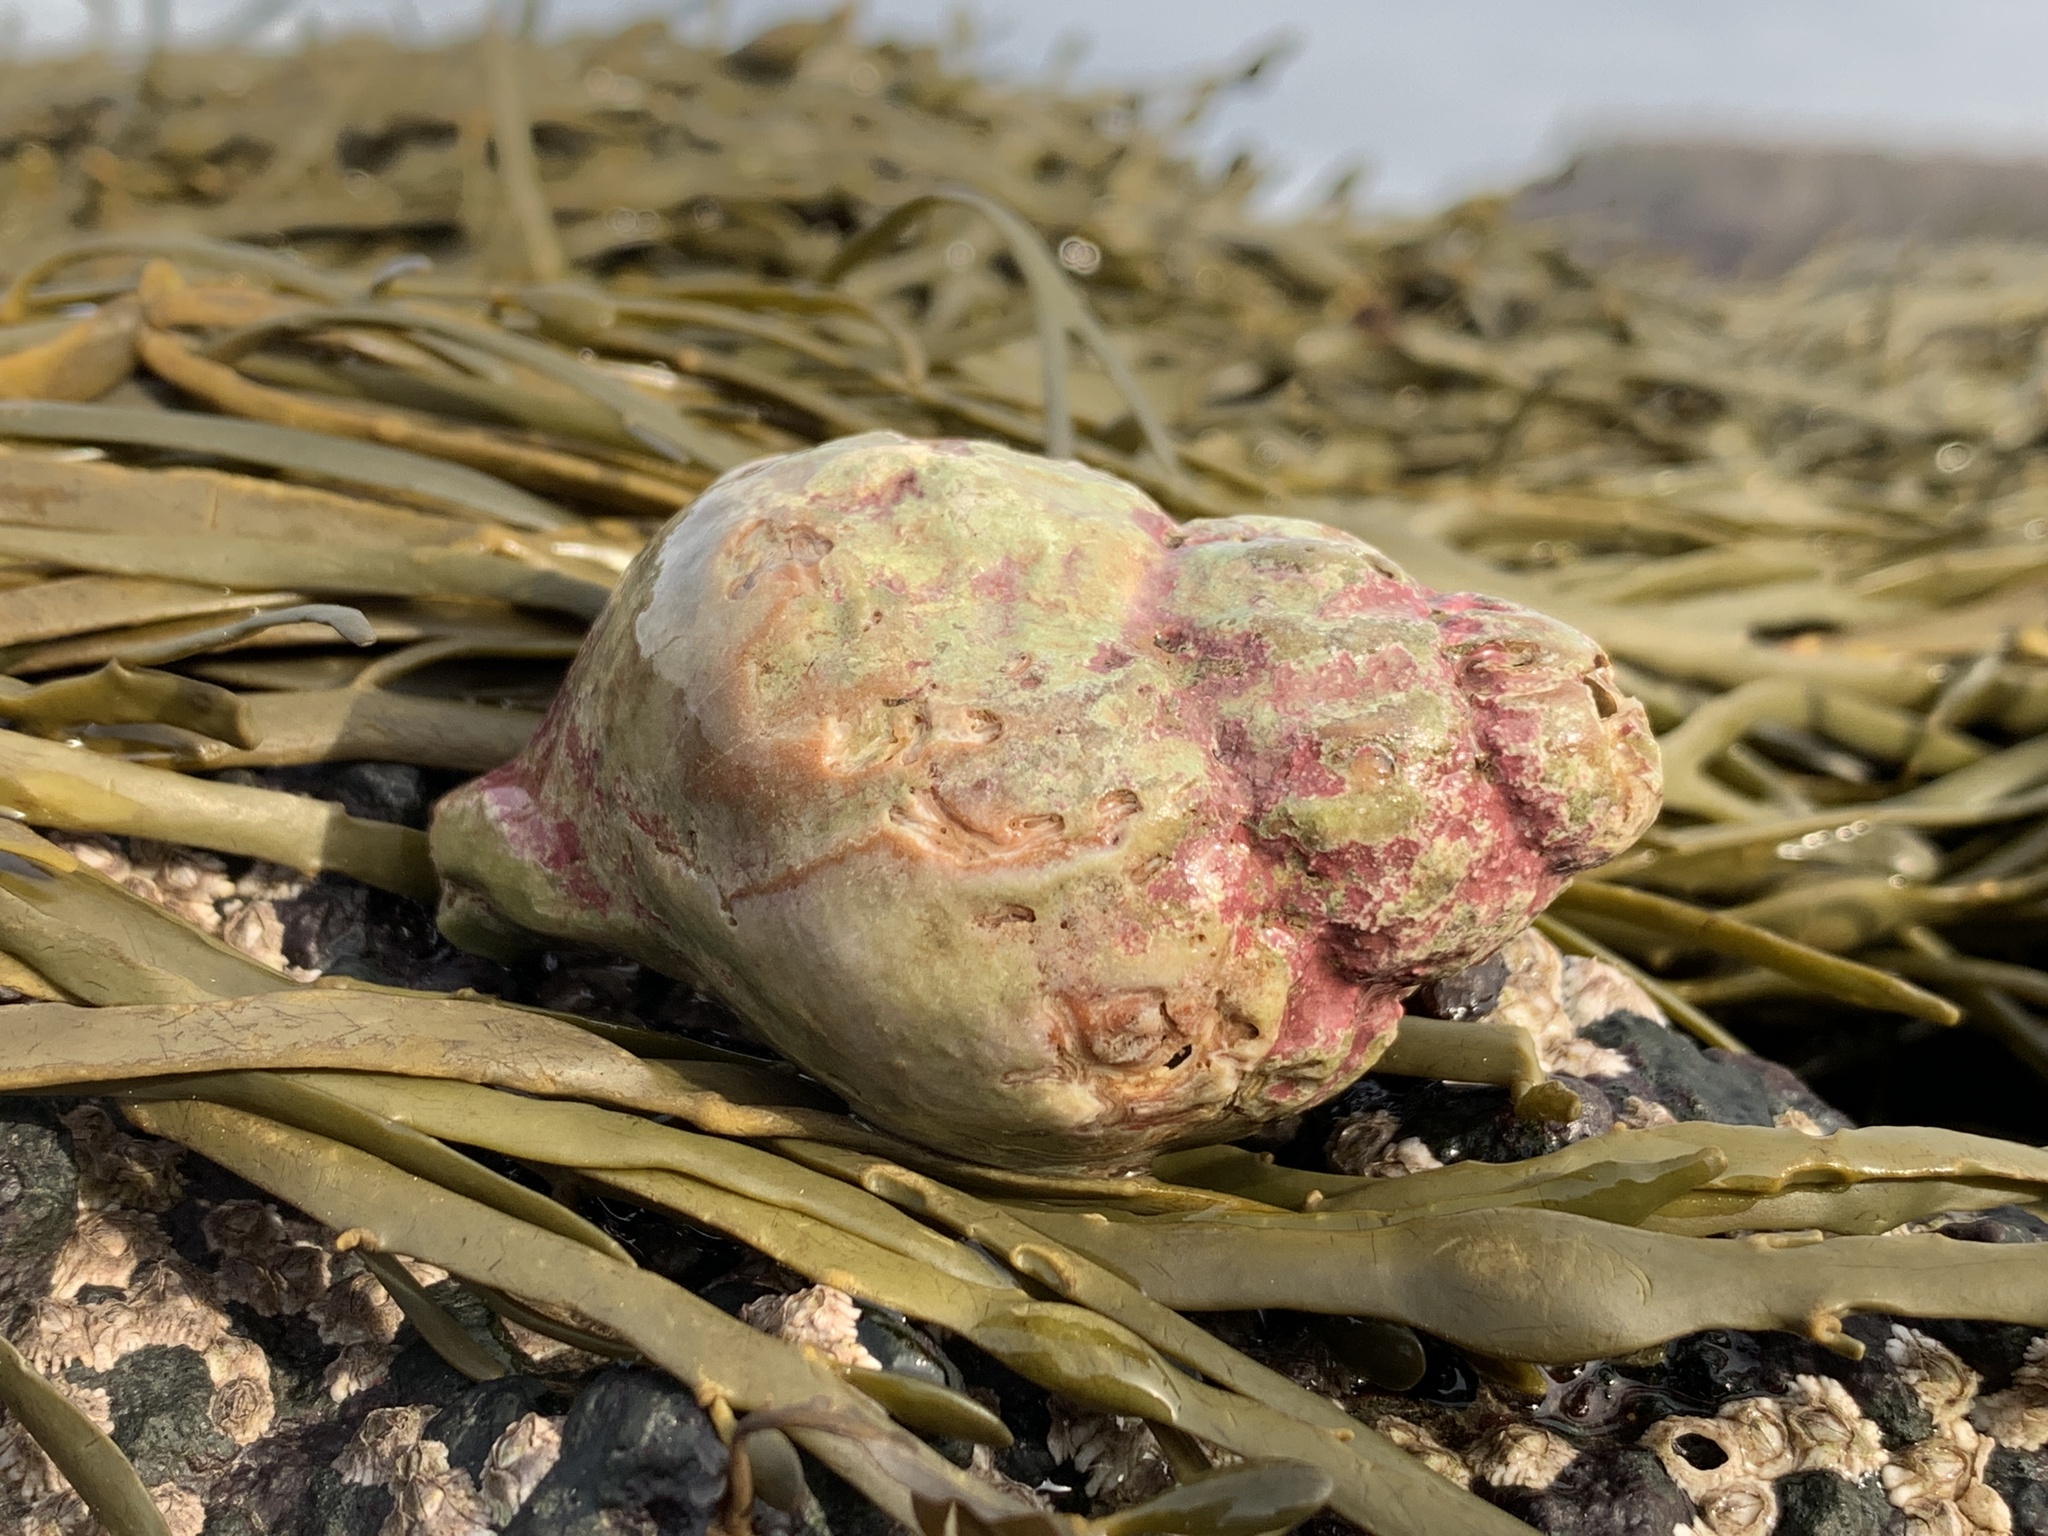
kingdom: Animalia
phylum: Mollusca
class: Gastropoda
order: Neogastropoda
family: Buccinidae
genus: Buccinum
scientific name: Buccinum undatum
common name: Common whelk
